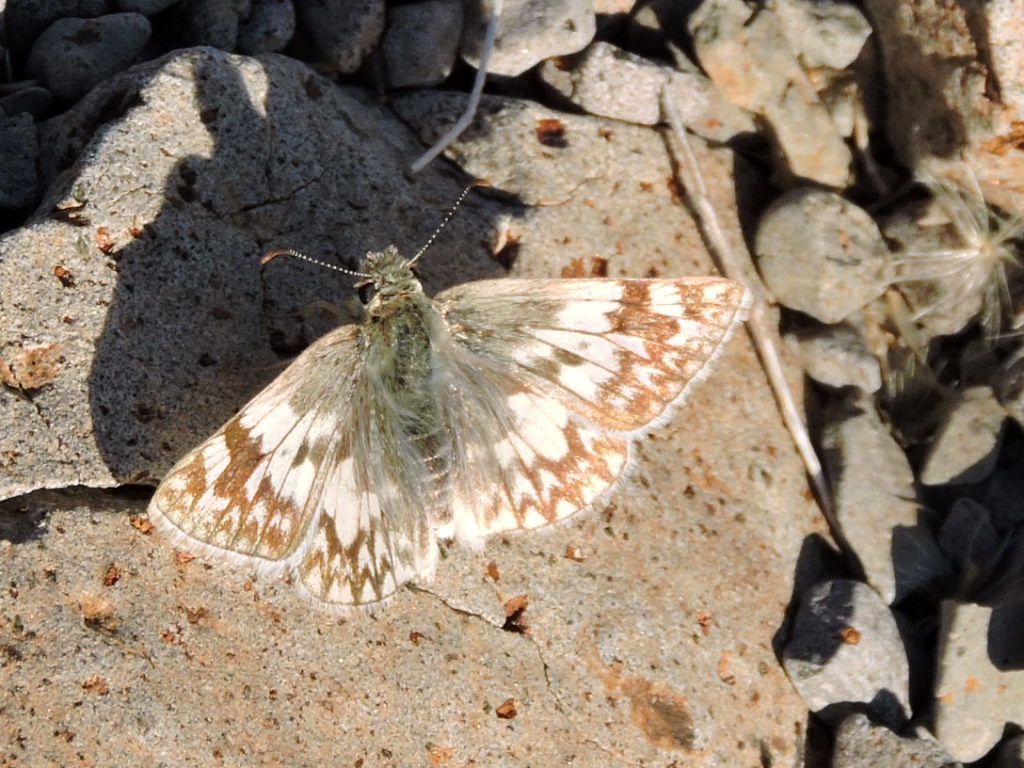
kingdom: Animalia
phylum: Arthropoda
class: Insecta
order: Lepidoptera
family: Hesperiidae
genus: Heliopetes
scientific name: Heliopetes ericetorum
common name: Northern white-skipper
